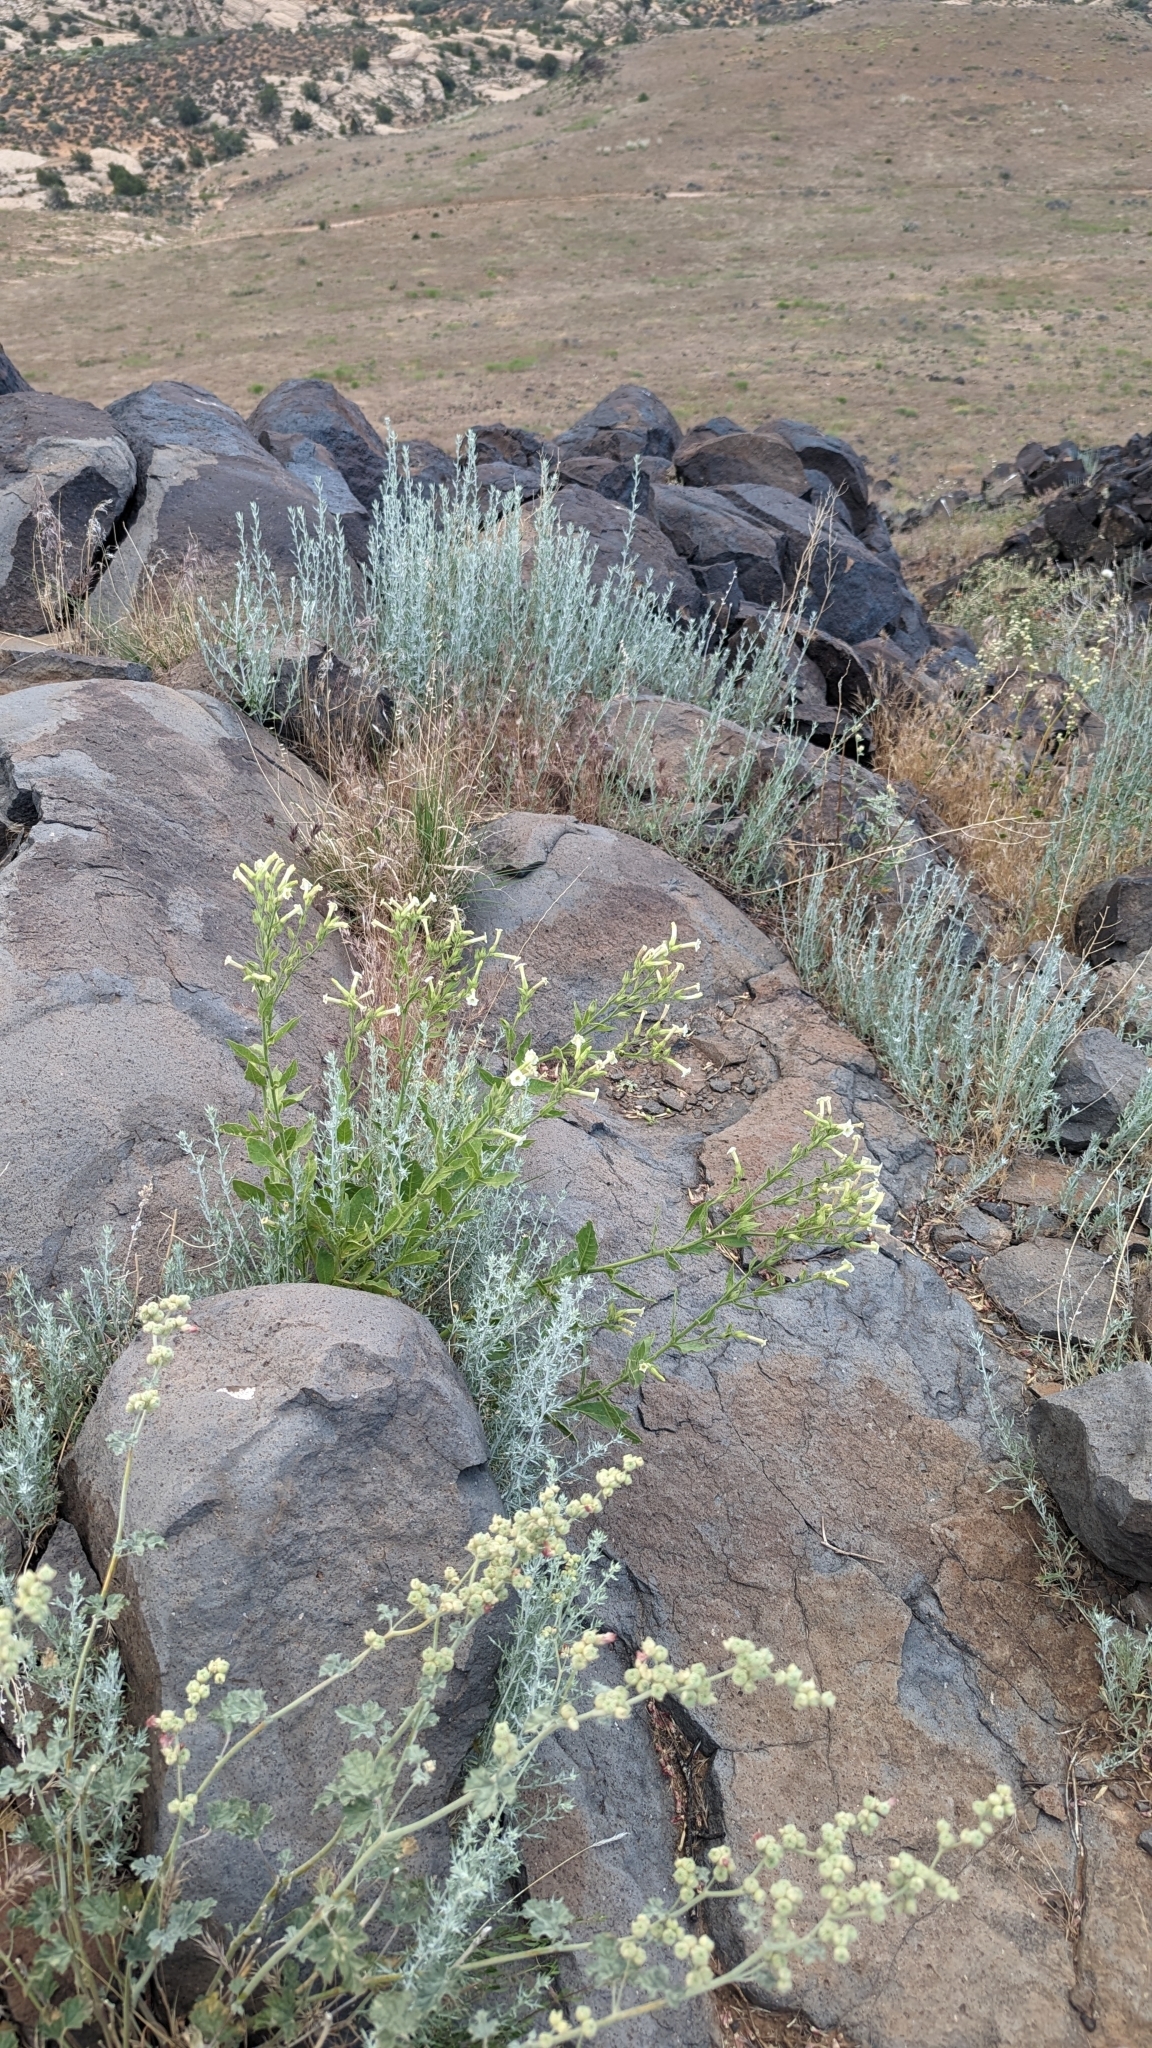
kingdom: Plantae
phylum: Tracheophyta
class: Magnoliopsida
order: Solanales
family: Solanaceae
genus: Nicotiana
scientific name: Nicotiana obtusifolia
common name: Desert tobacco
